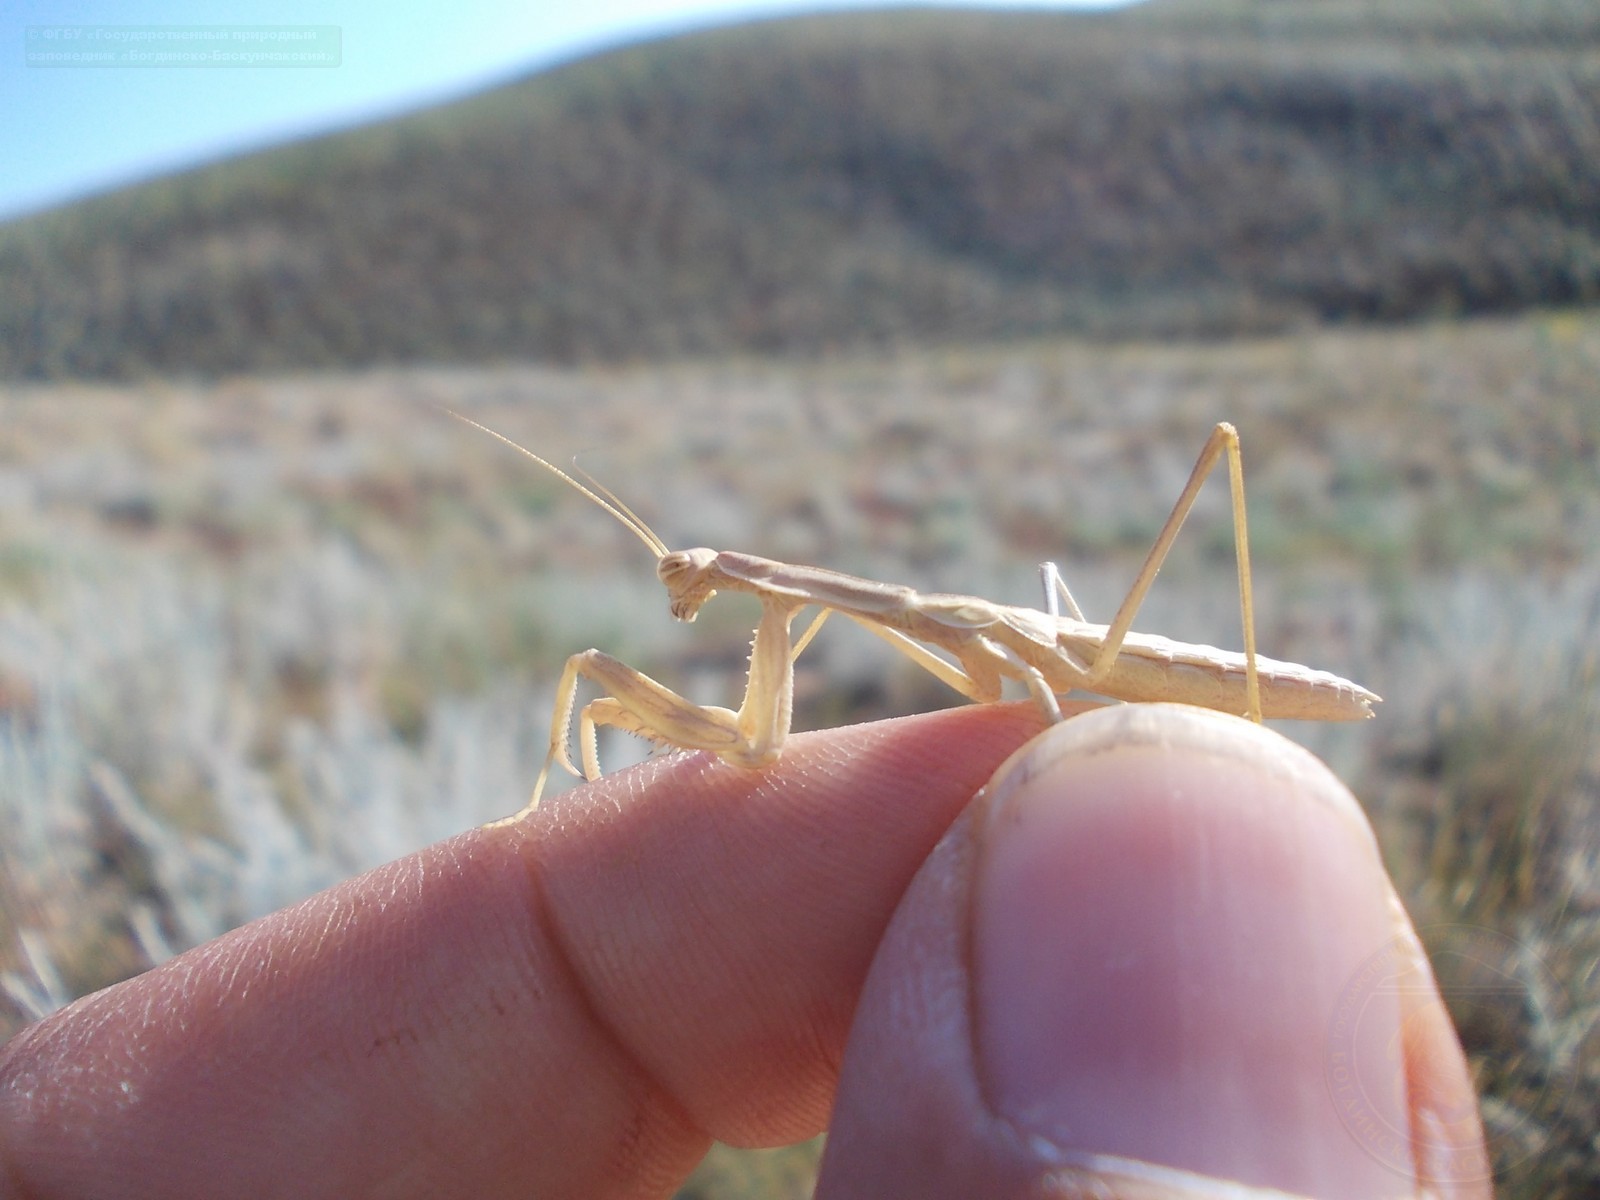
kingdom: Animalia
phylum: Arthropoda
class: Insecta
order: Mantodea
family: Rivetinidae
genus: Bolivaria
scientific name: Bolivaria brachyptera
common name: Bolivar's short winged mantis
